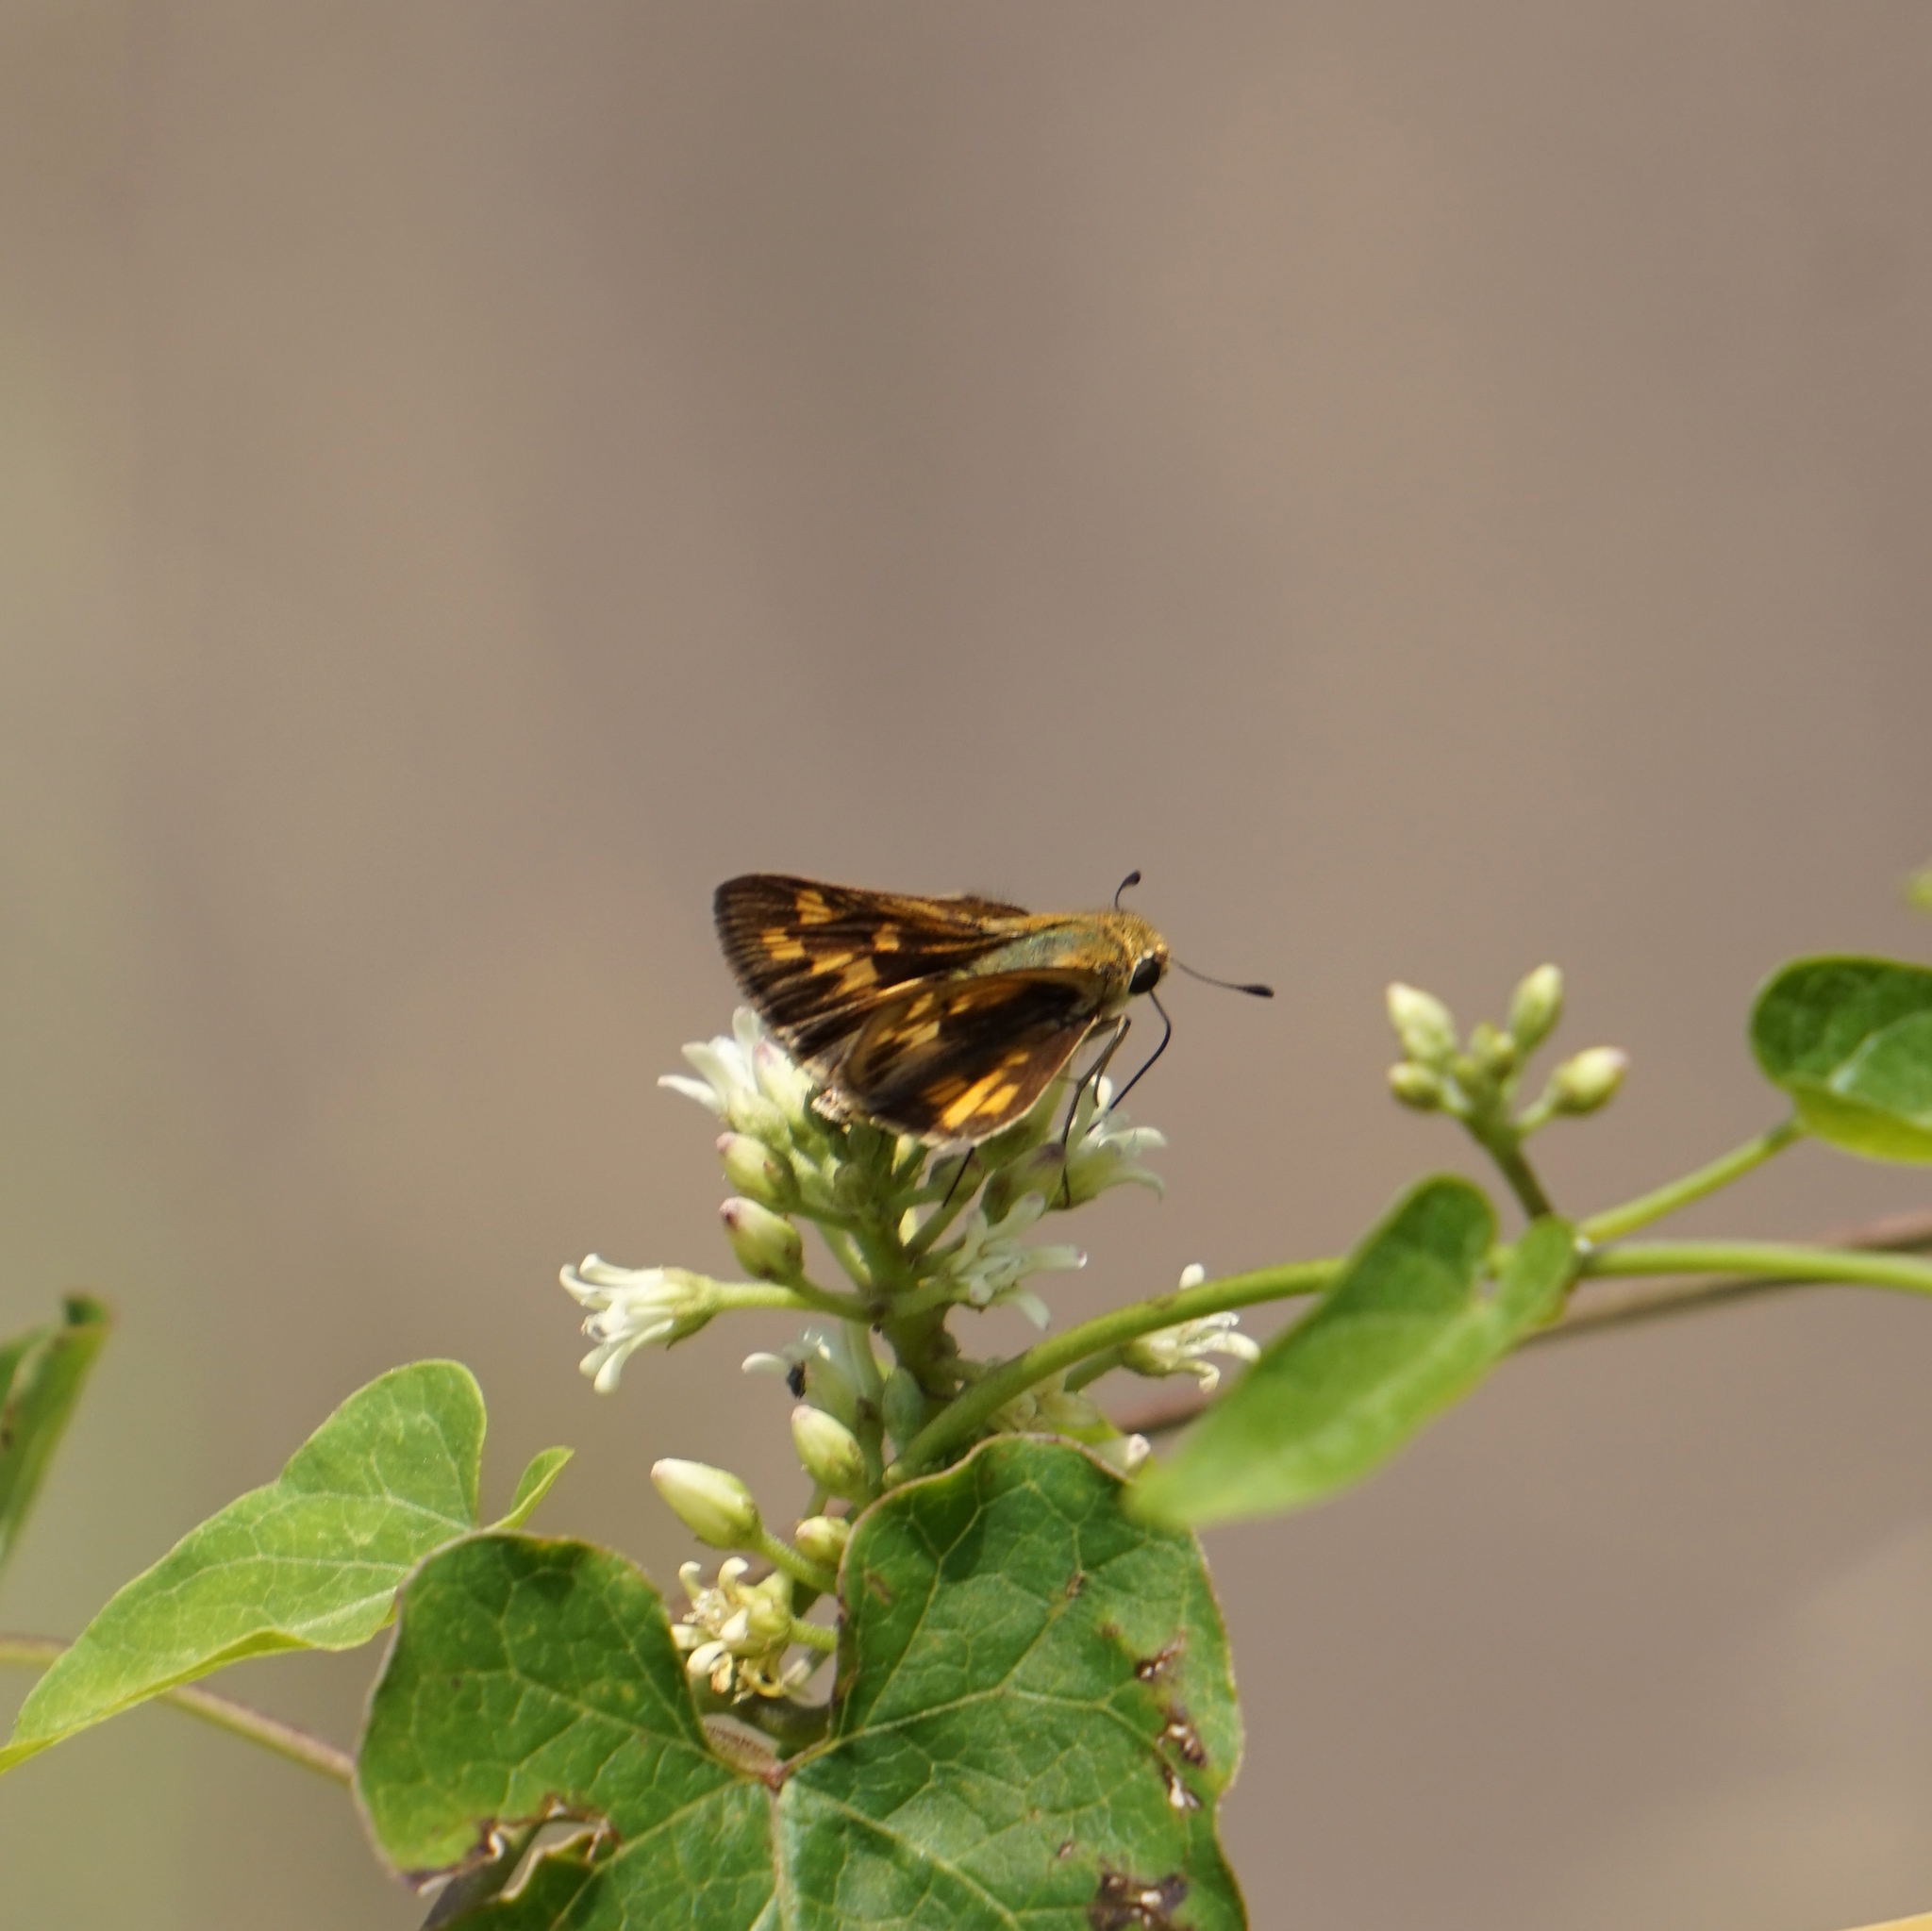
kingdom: Animalia
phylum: Arthropoda
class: Insecta
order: Lepidoptera
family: Hesperiidae
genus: Hylephila
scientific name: Hylephila phyleus
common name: Fiery skipper
